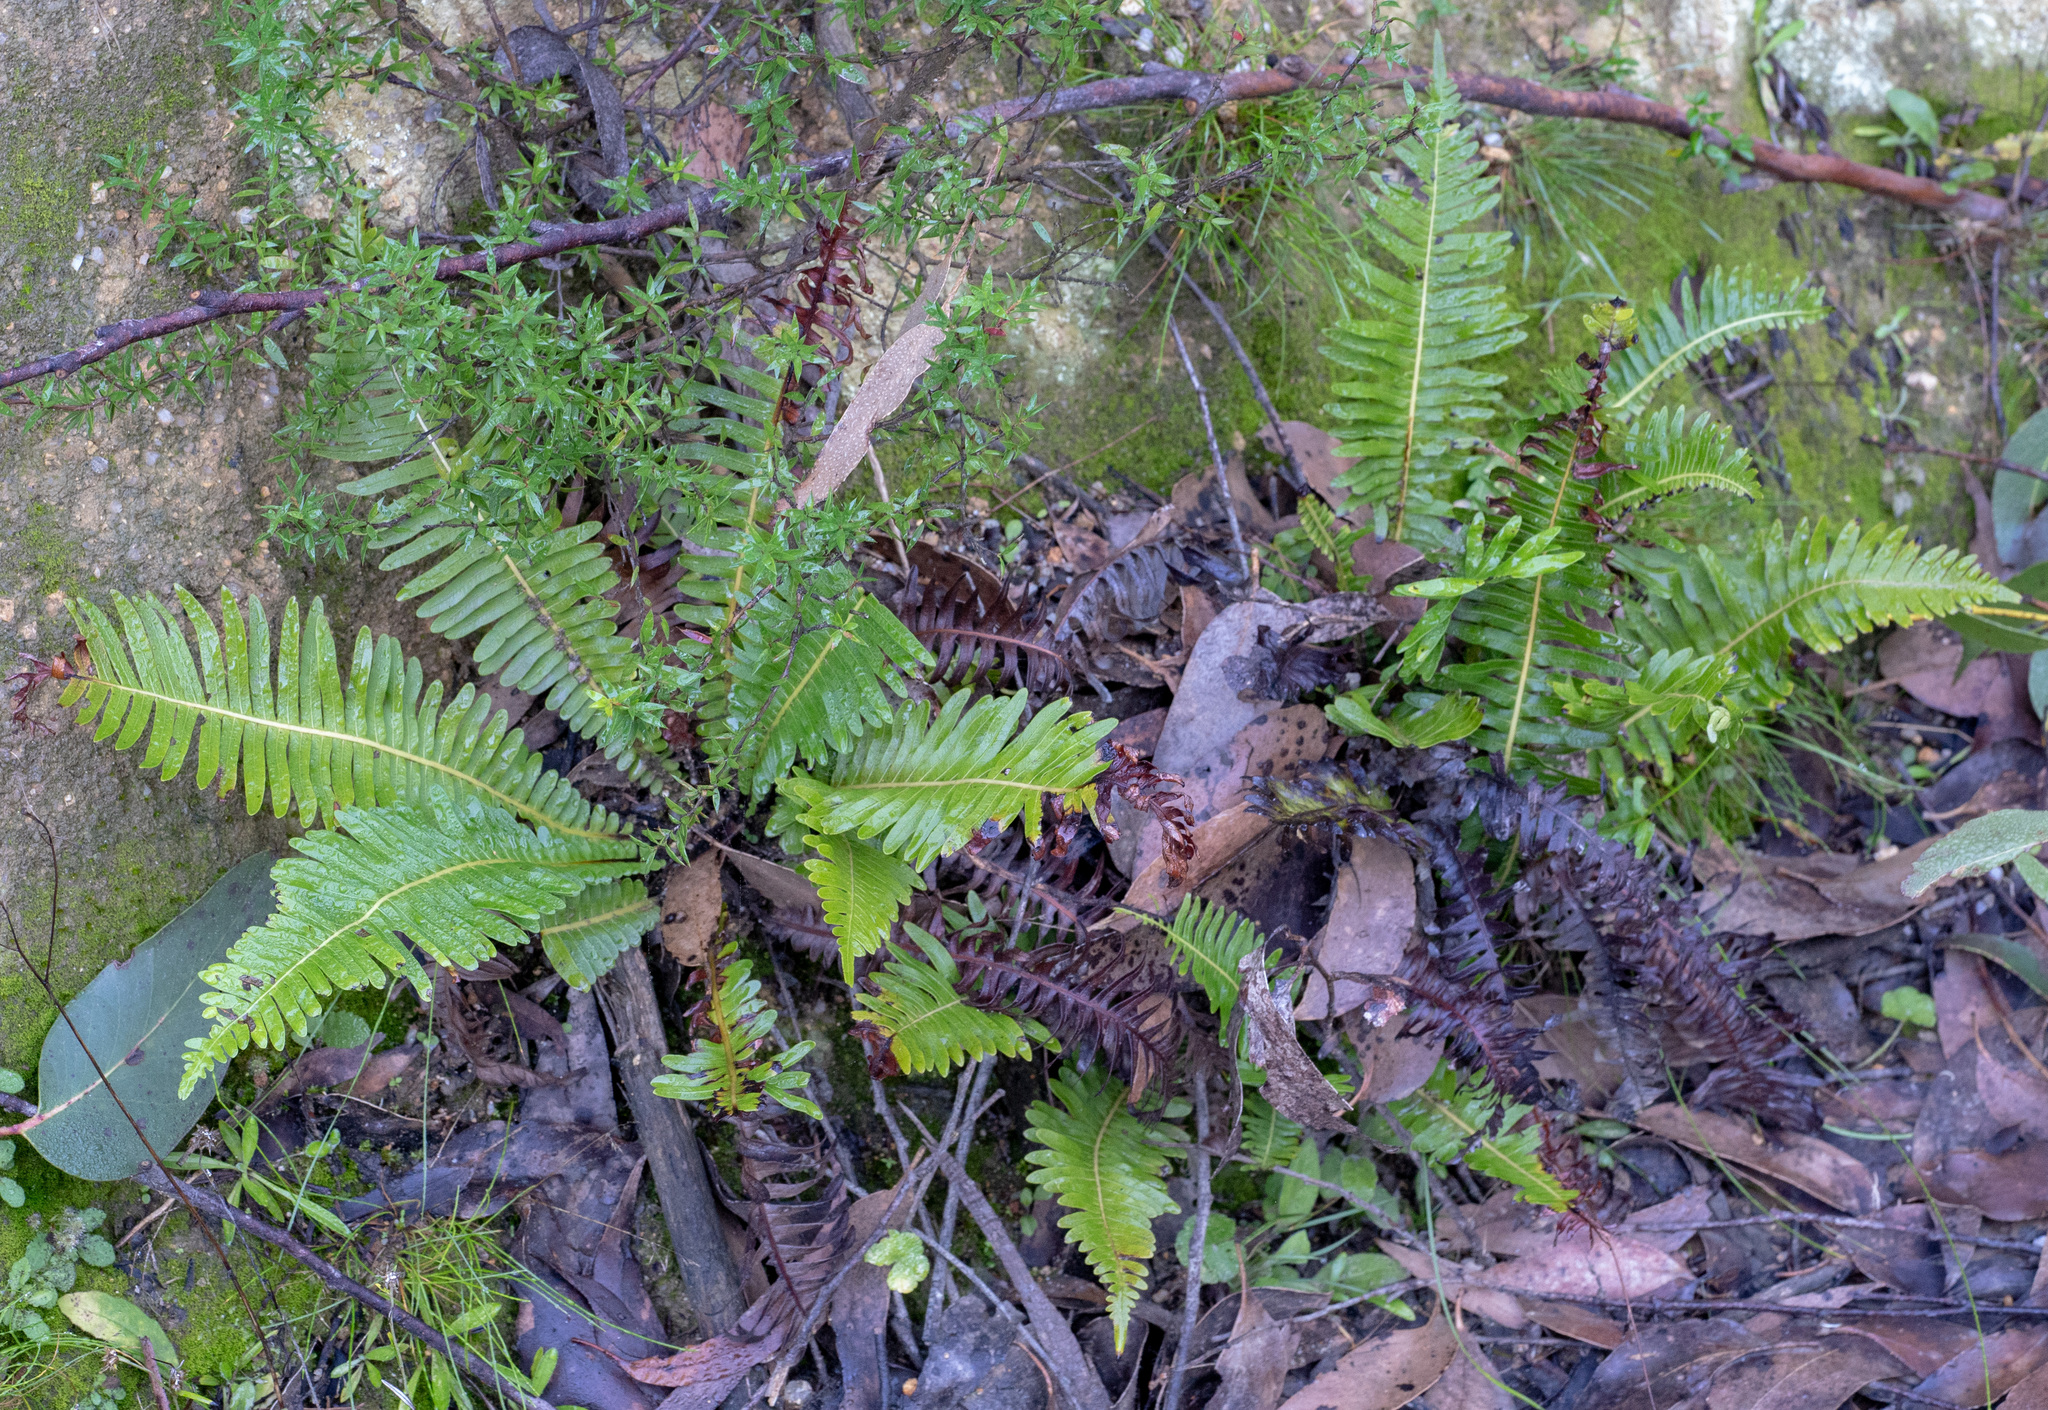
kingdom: Plantae
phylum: Tracheophyta
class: Polypodiopsida
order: Polypodiales
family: Blechnaceae
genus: Lomaria
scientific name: Lomaria nuda
